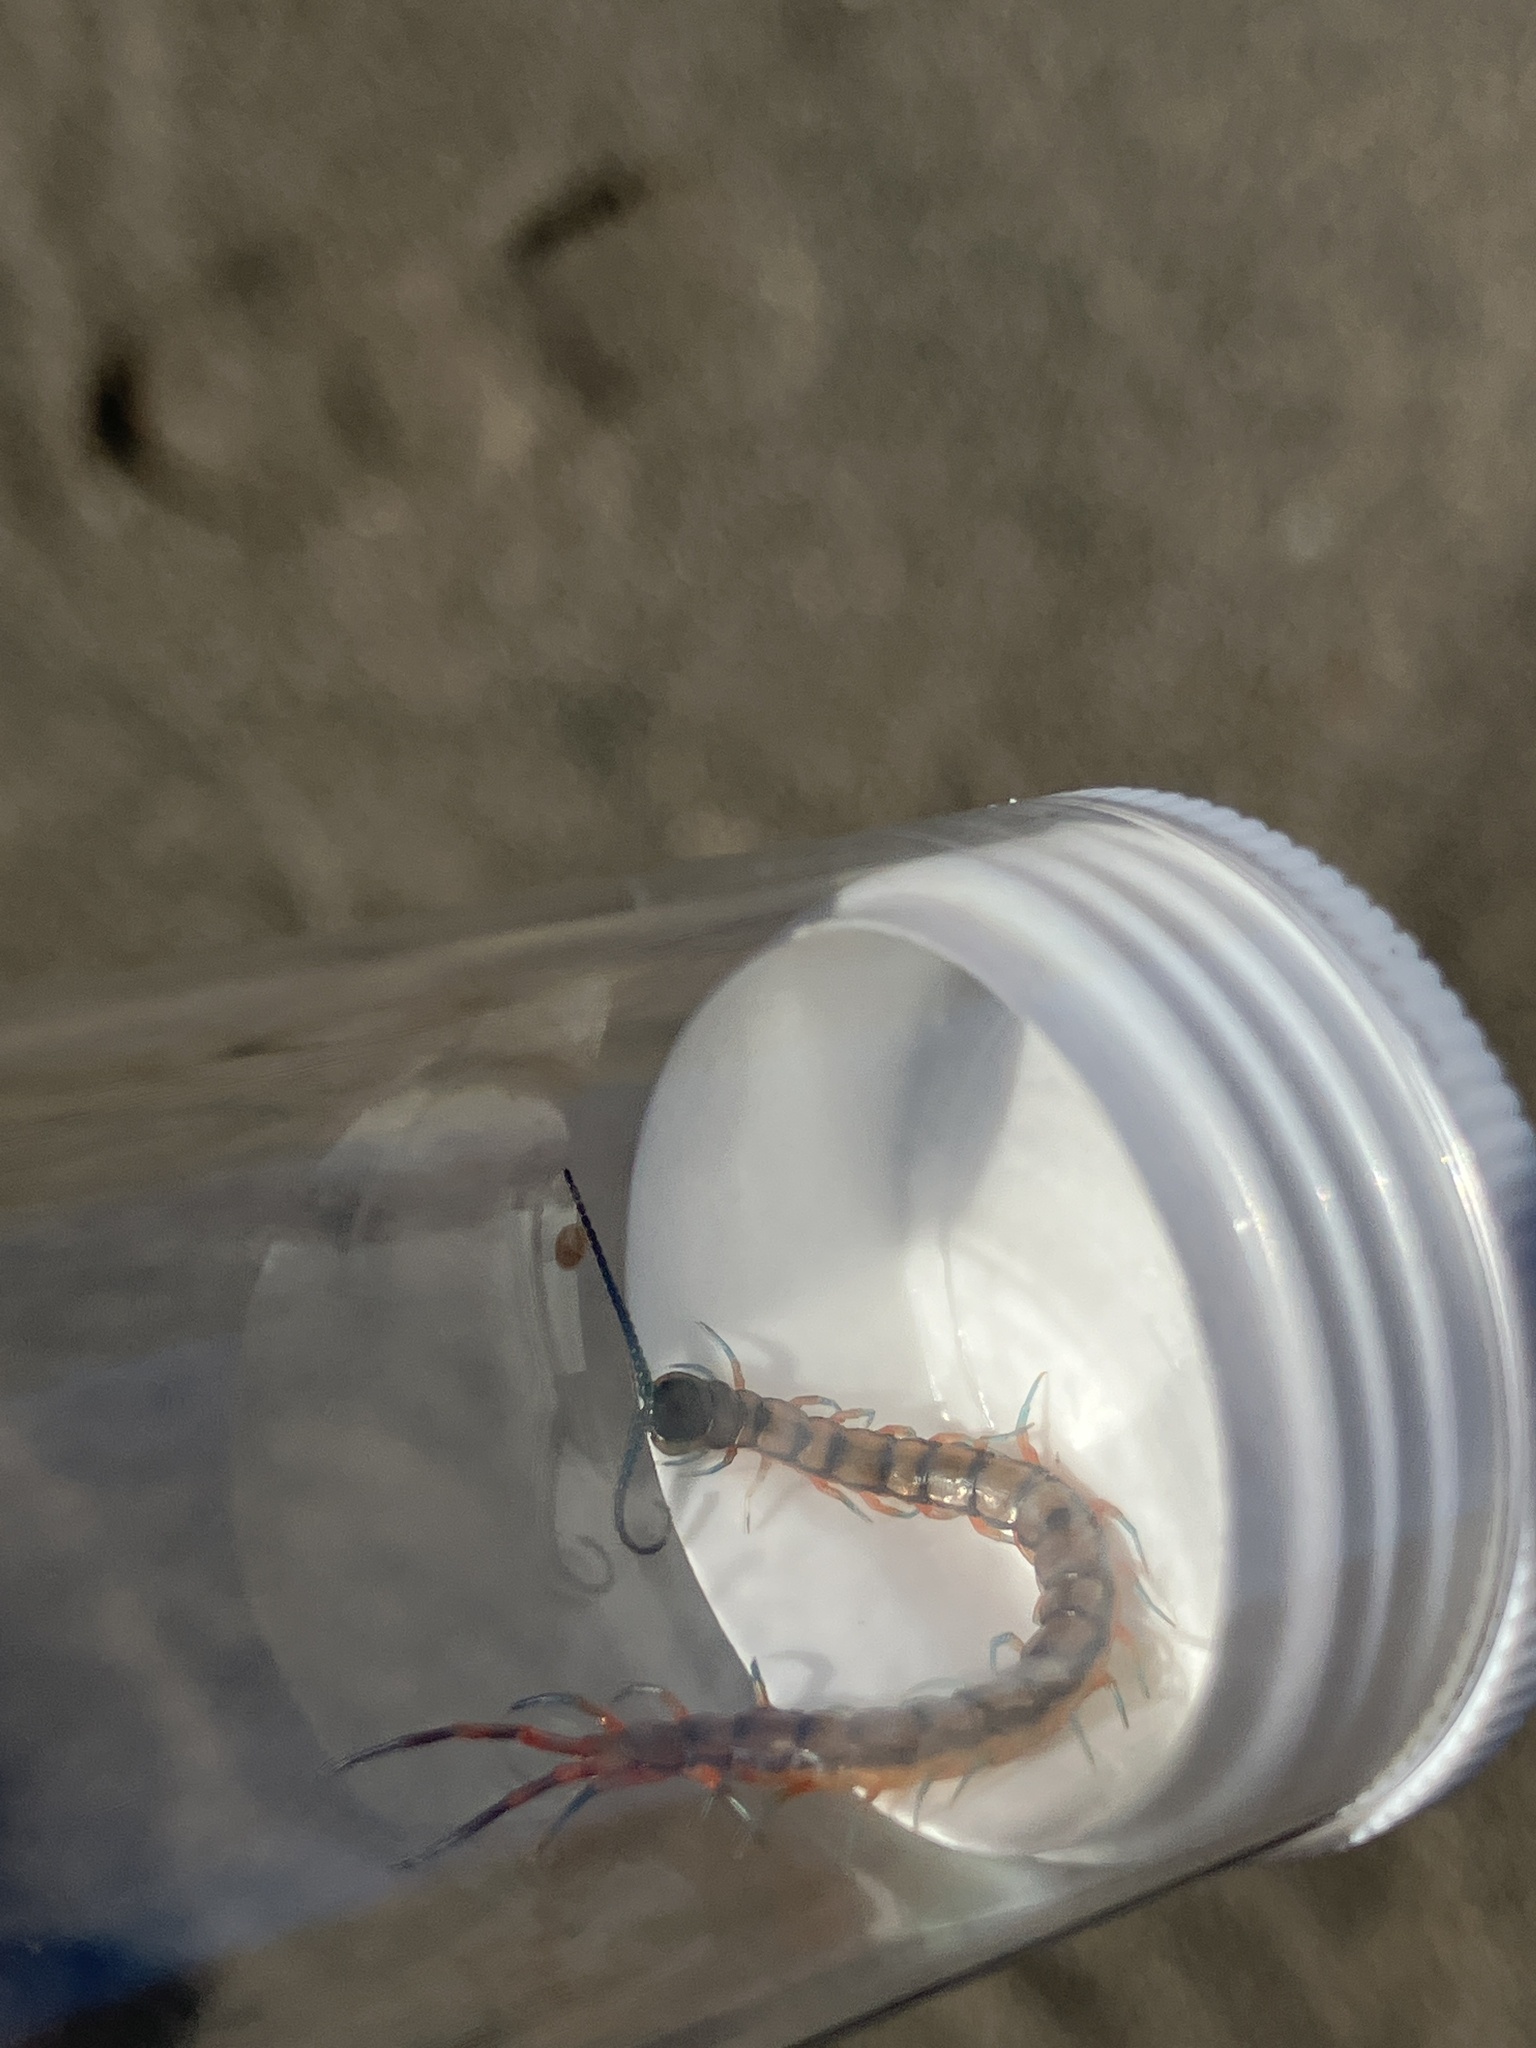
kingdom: Animalia
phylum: Arthropoda
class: Chilopoda
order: Scolopendromorpha
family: Scolopendridae
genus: Scolopendra
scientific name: Scolopendra subspinipes
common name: Centipede
